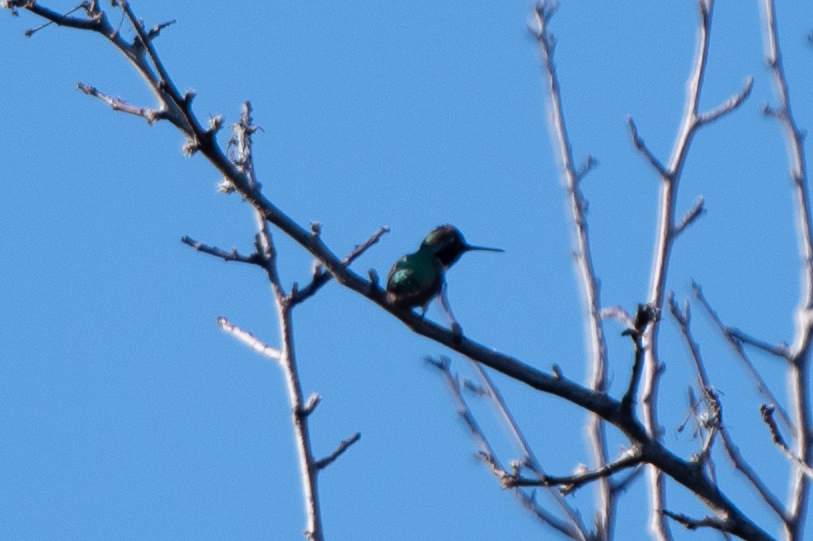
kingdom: Animalia
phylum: Chordata
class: Aves
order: Apodiformes
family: Trochilidae
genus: Calypte
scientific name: Calypte anna
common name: Anna's hummingbird
